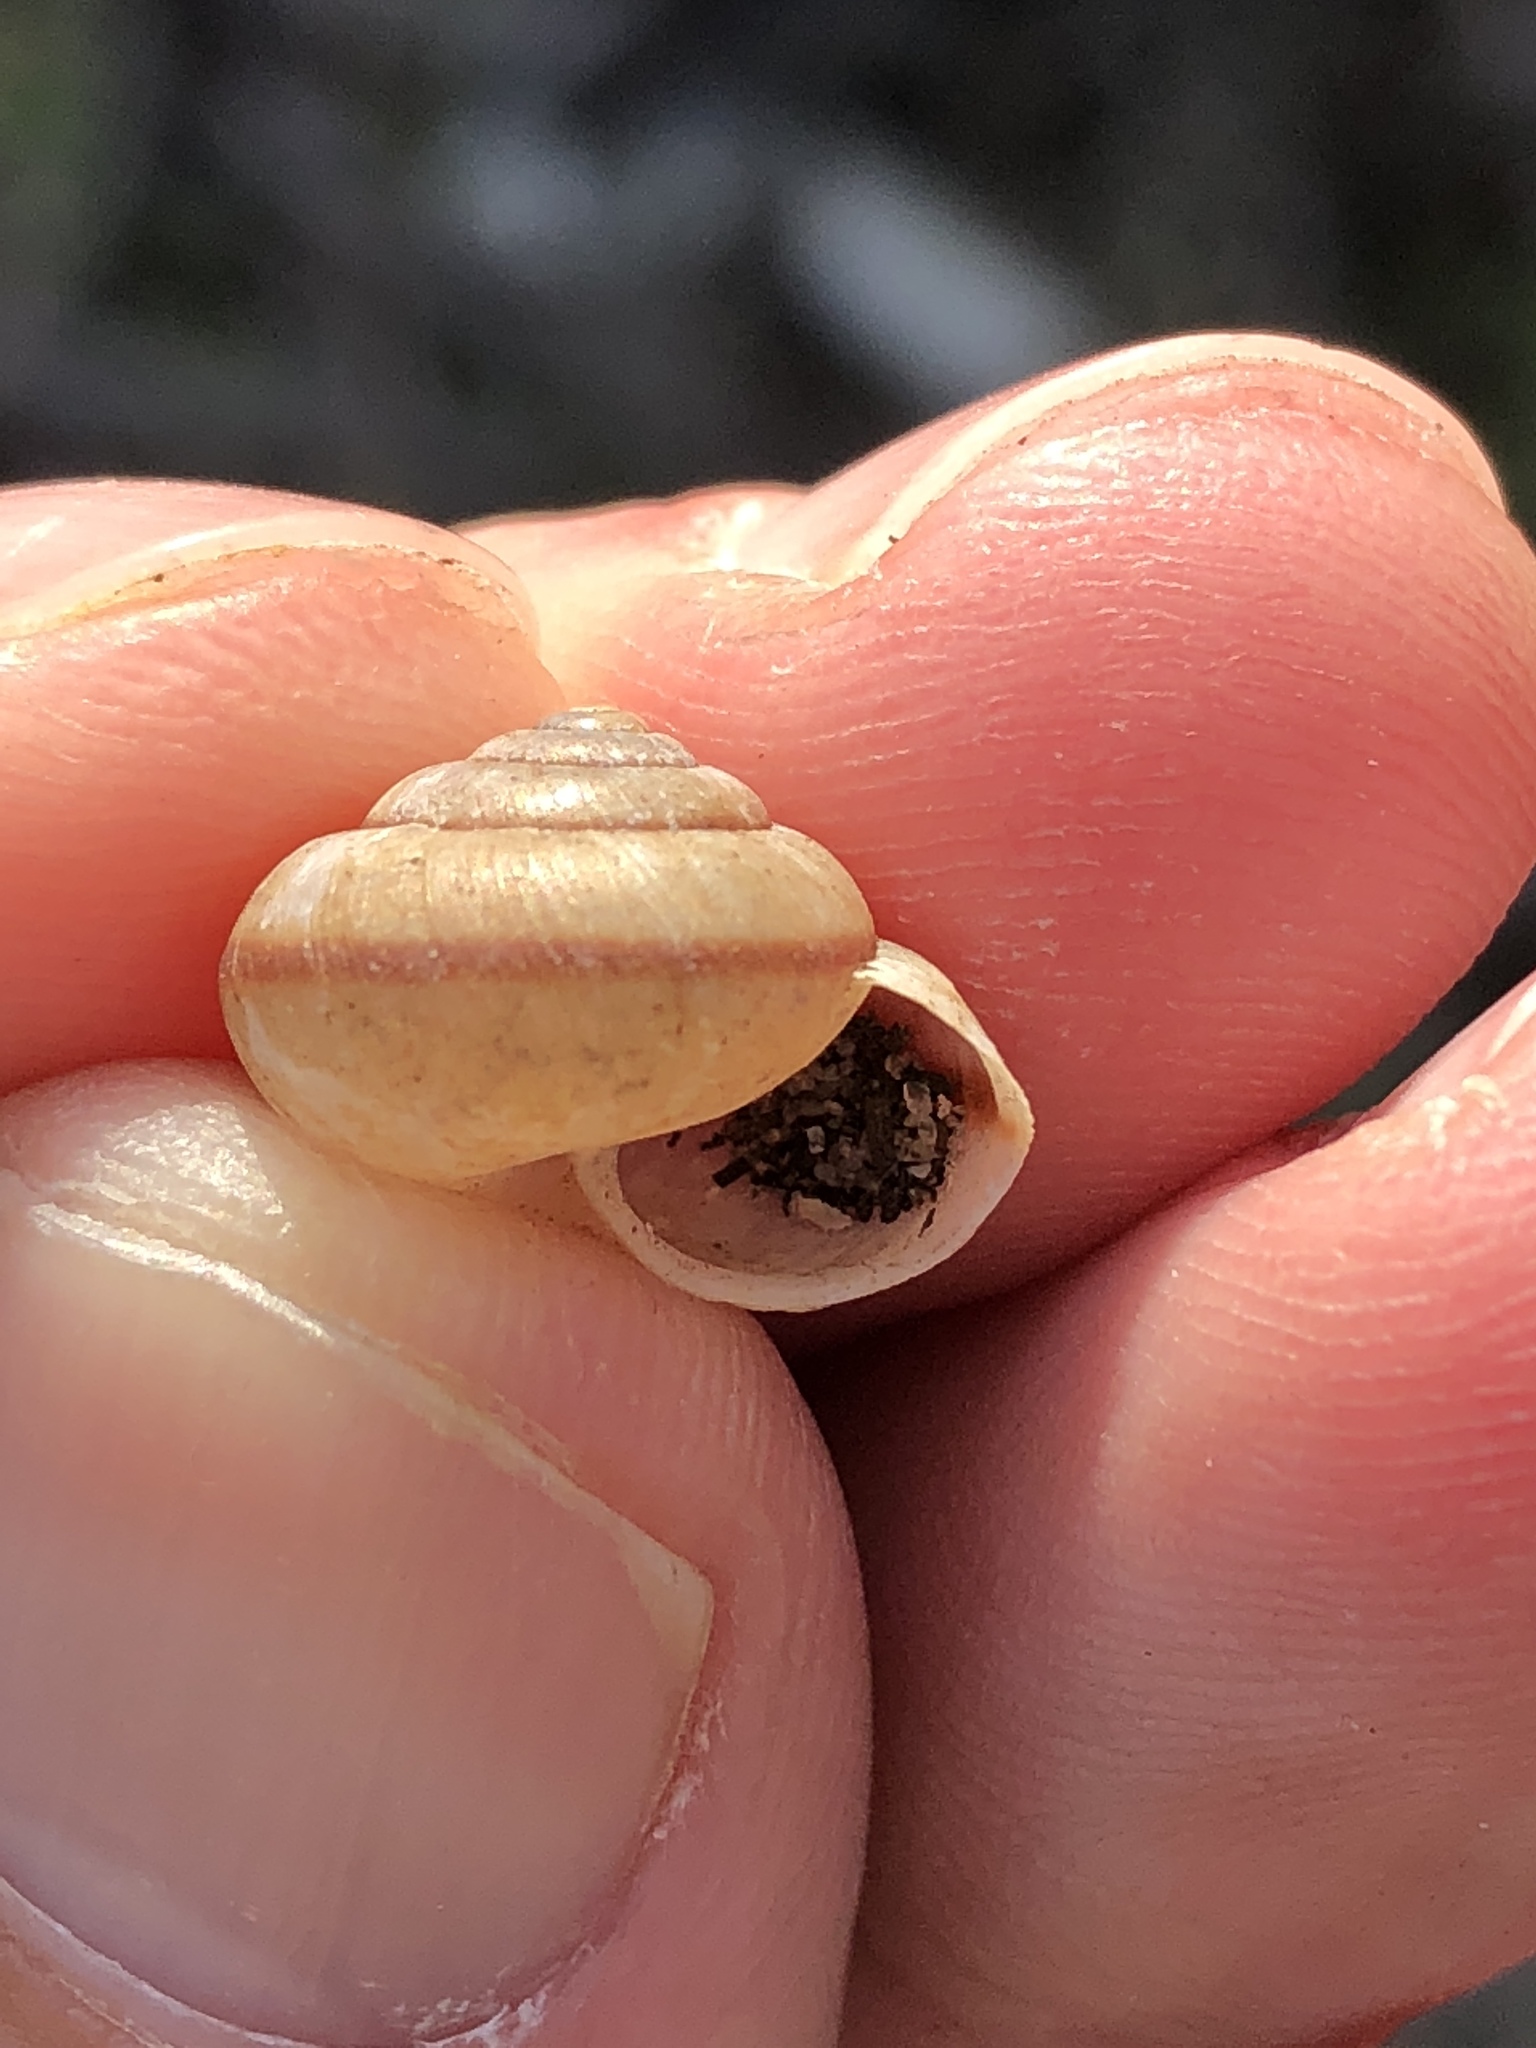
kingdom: Animalia
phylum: Mollusca
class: Gastropoda
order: Stylommatophora
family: Camaenidae
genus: Bradybaena
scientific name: Bradybaena similaris
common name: Asian trampsnail
